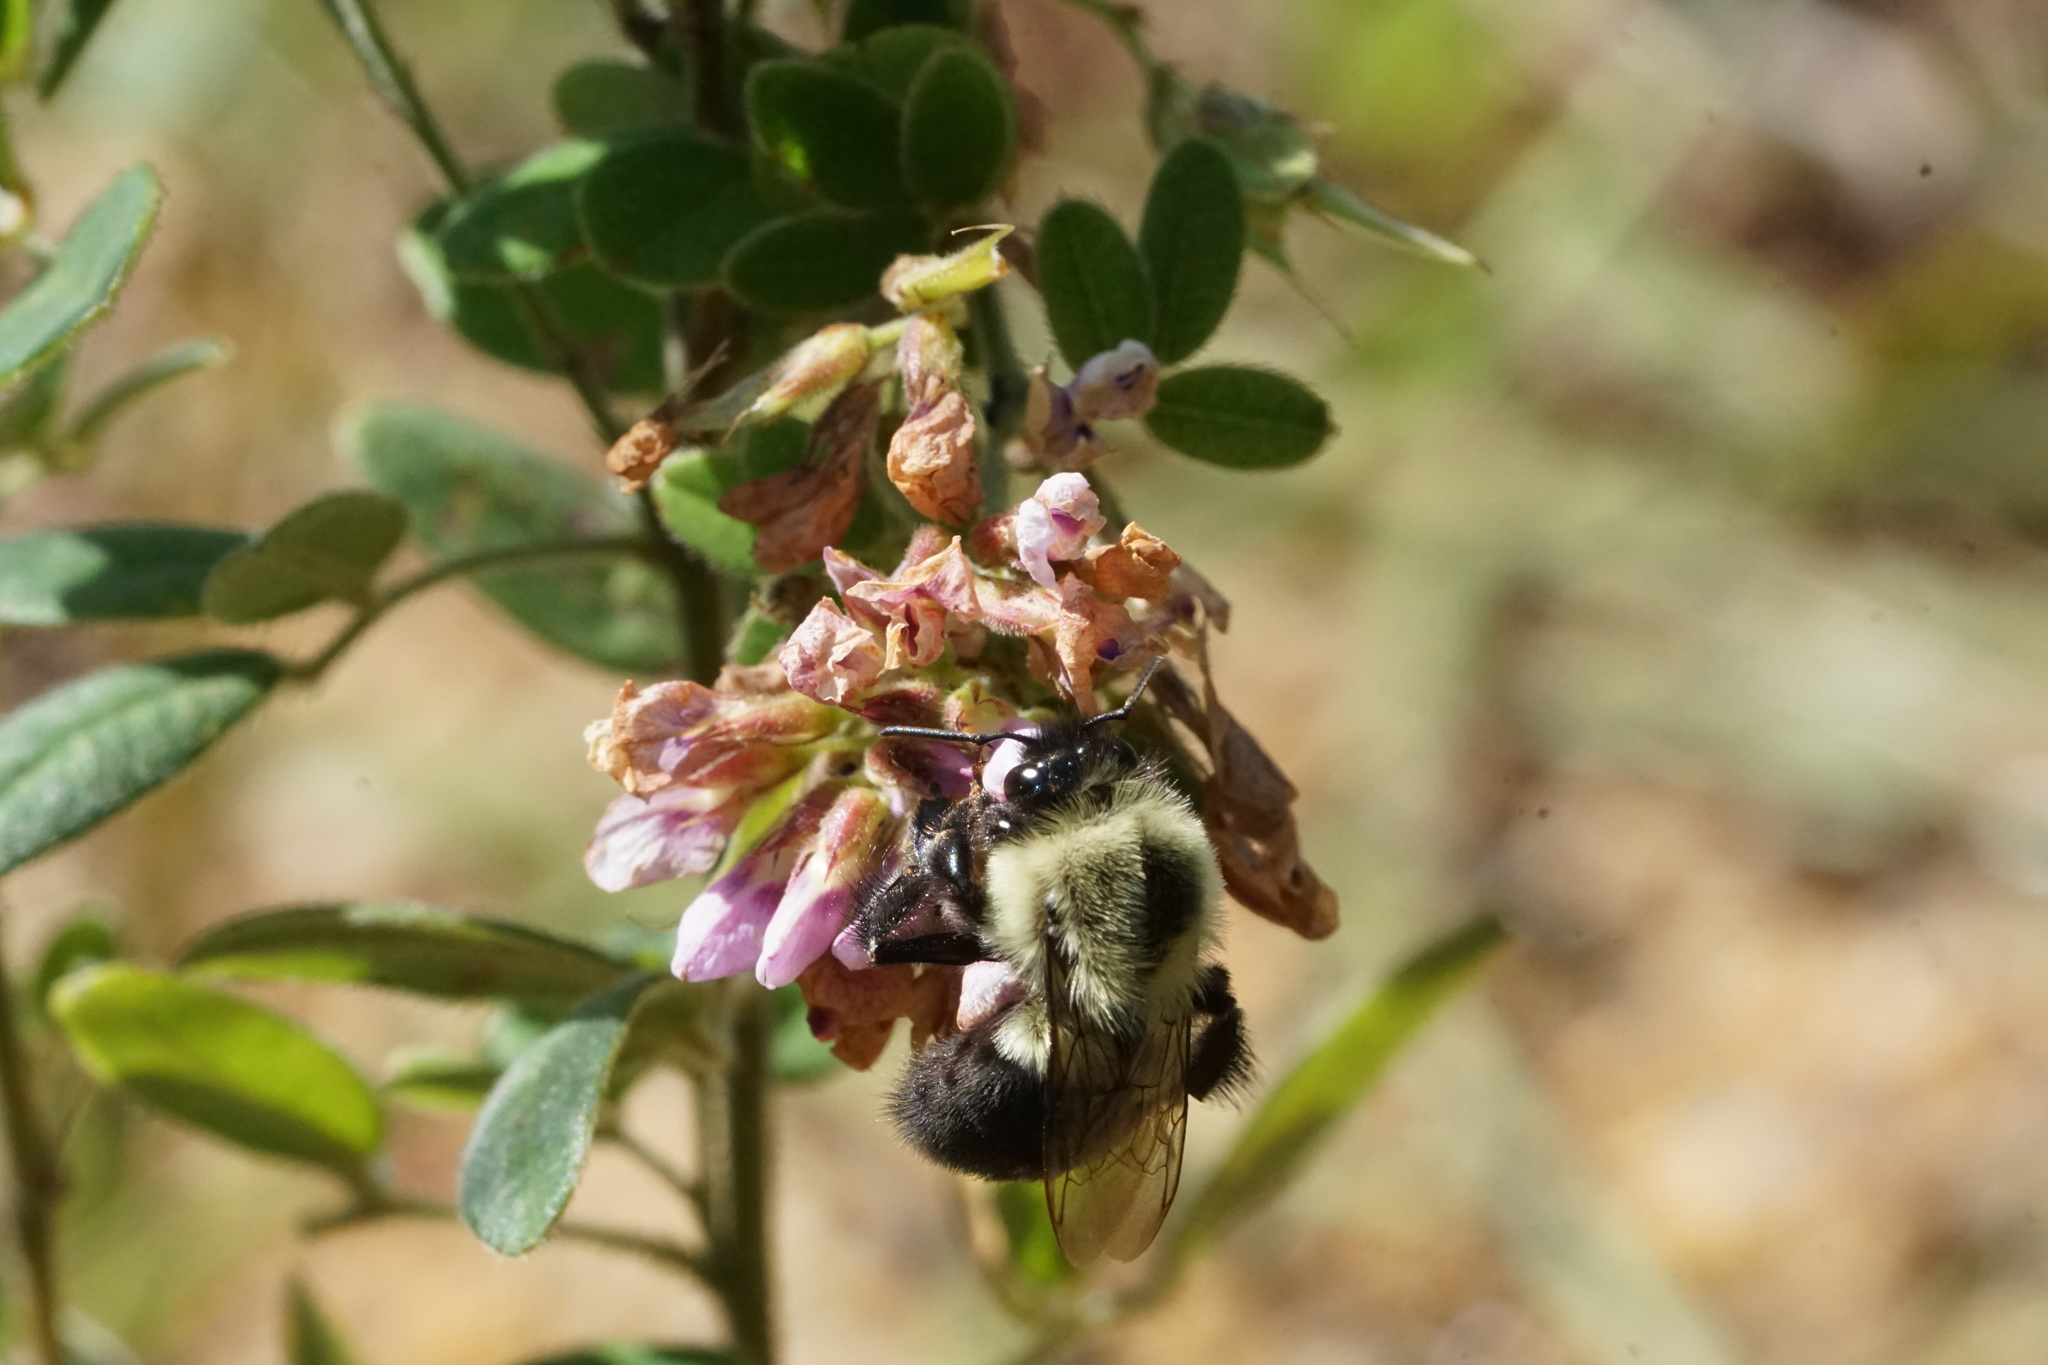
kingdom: Animalia
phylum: Arthropoda
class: Insecta
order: Hymenoptera
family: Apidae
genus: Bombus
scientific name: Bombus impatiens
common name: Common eastern bumble bee
